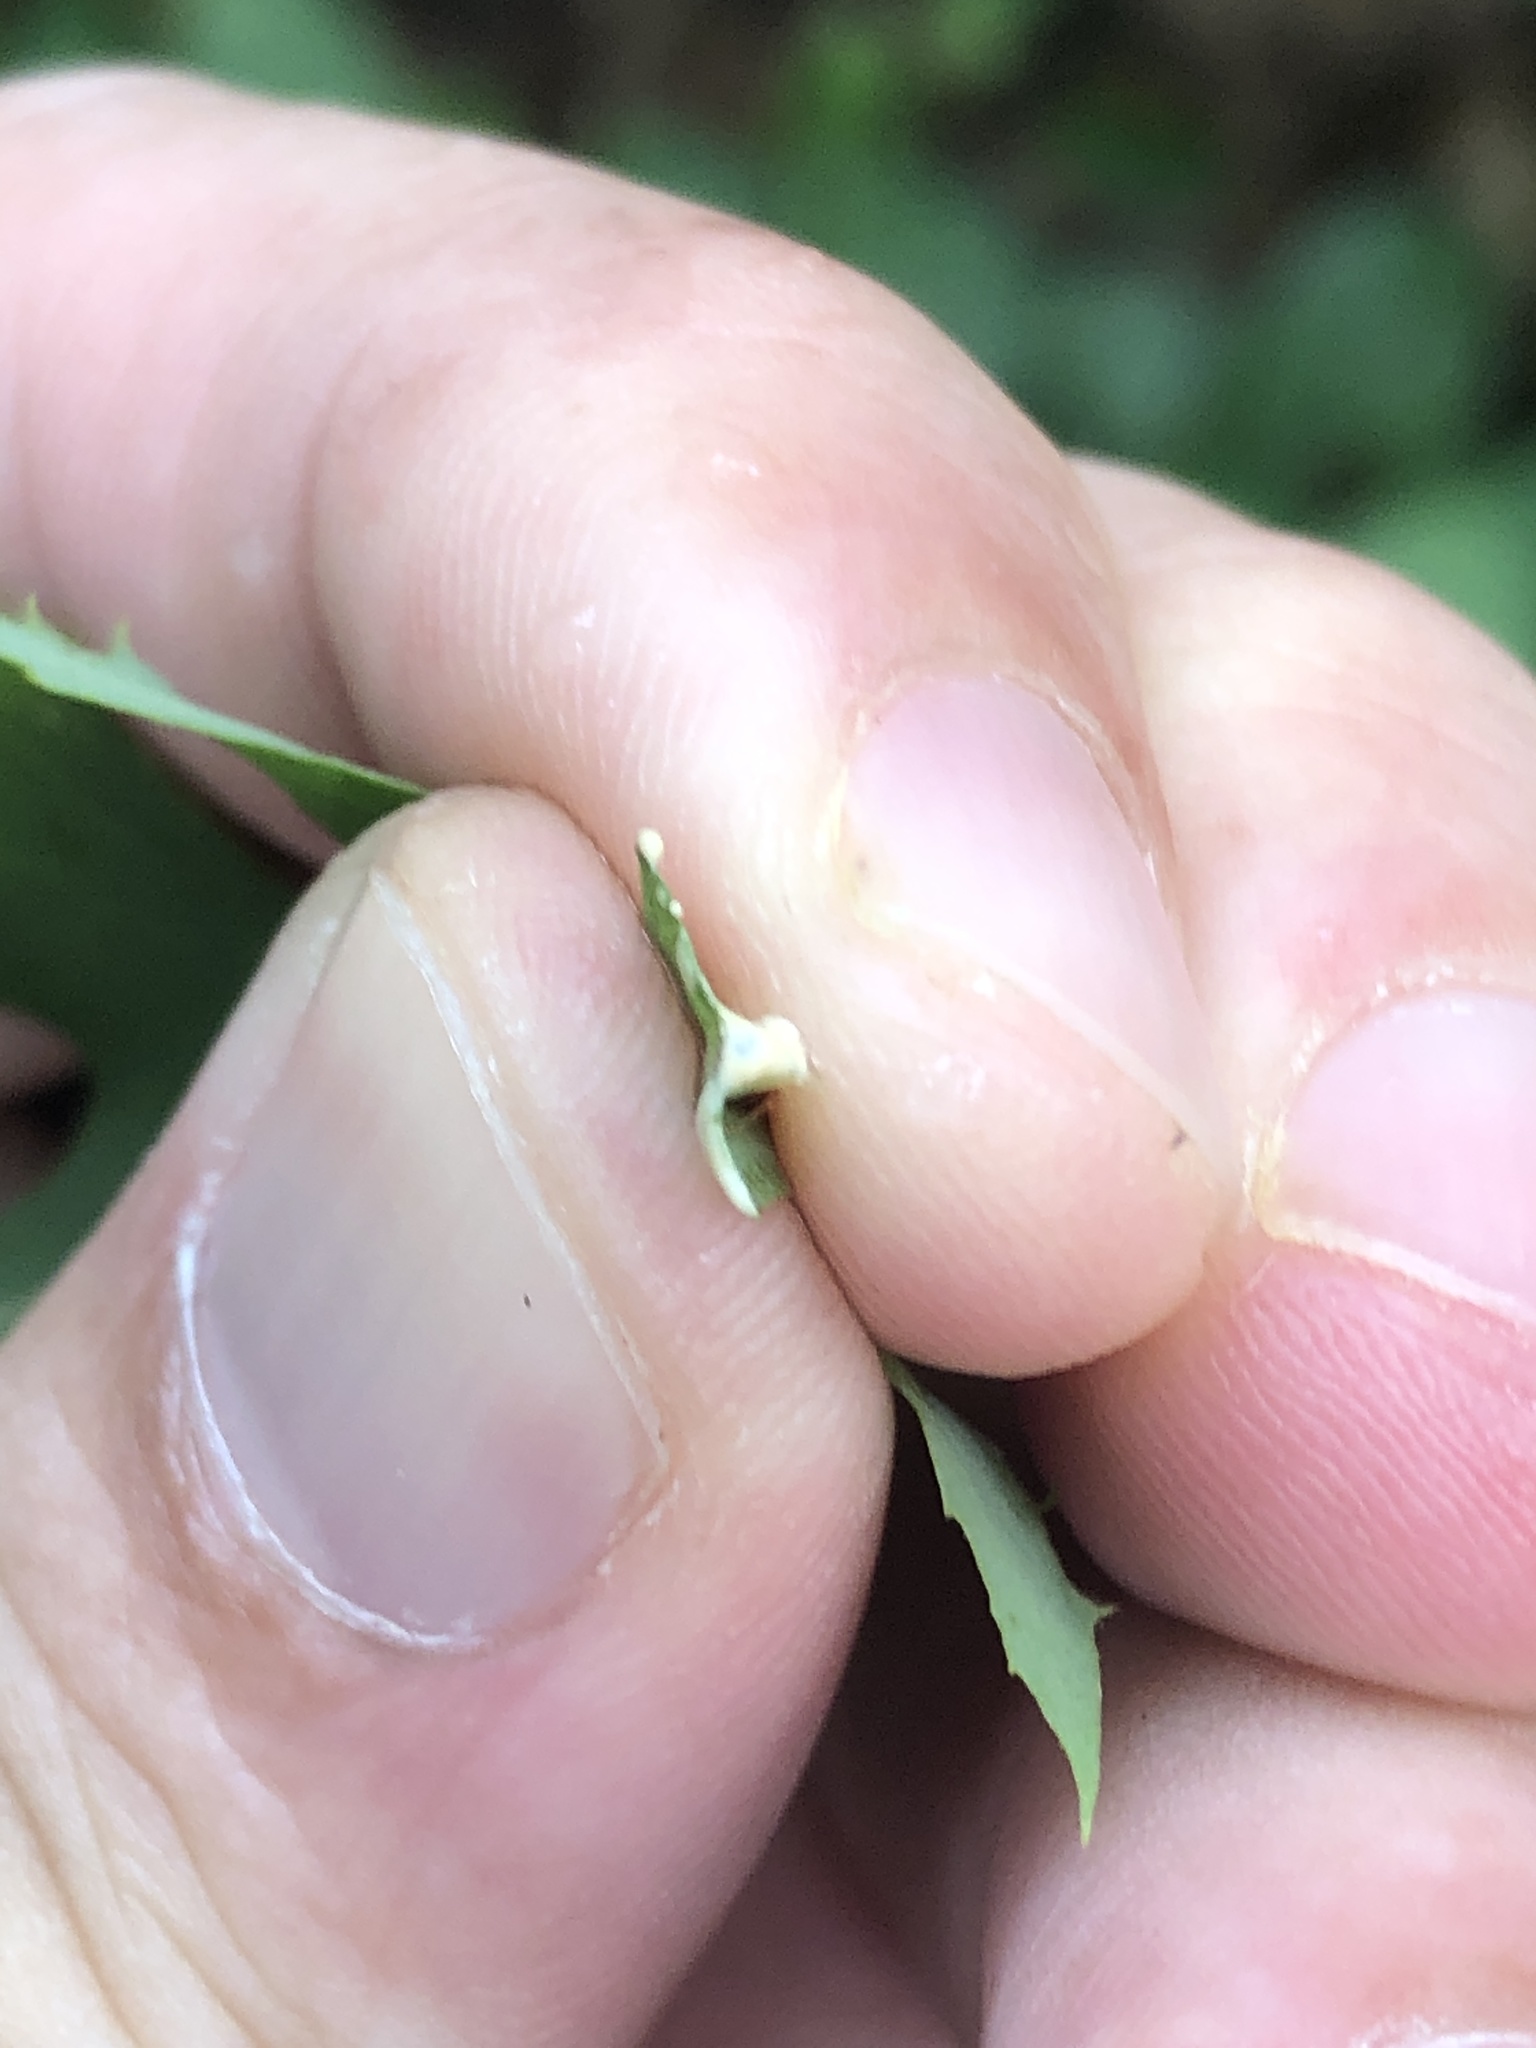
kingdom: Plantae
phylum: Tracheophyta
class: Magnoliopsida
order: Asterales
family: Asteraceae
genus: Lactuca
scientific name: Lactuca canadensis
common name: Canada lettuce
